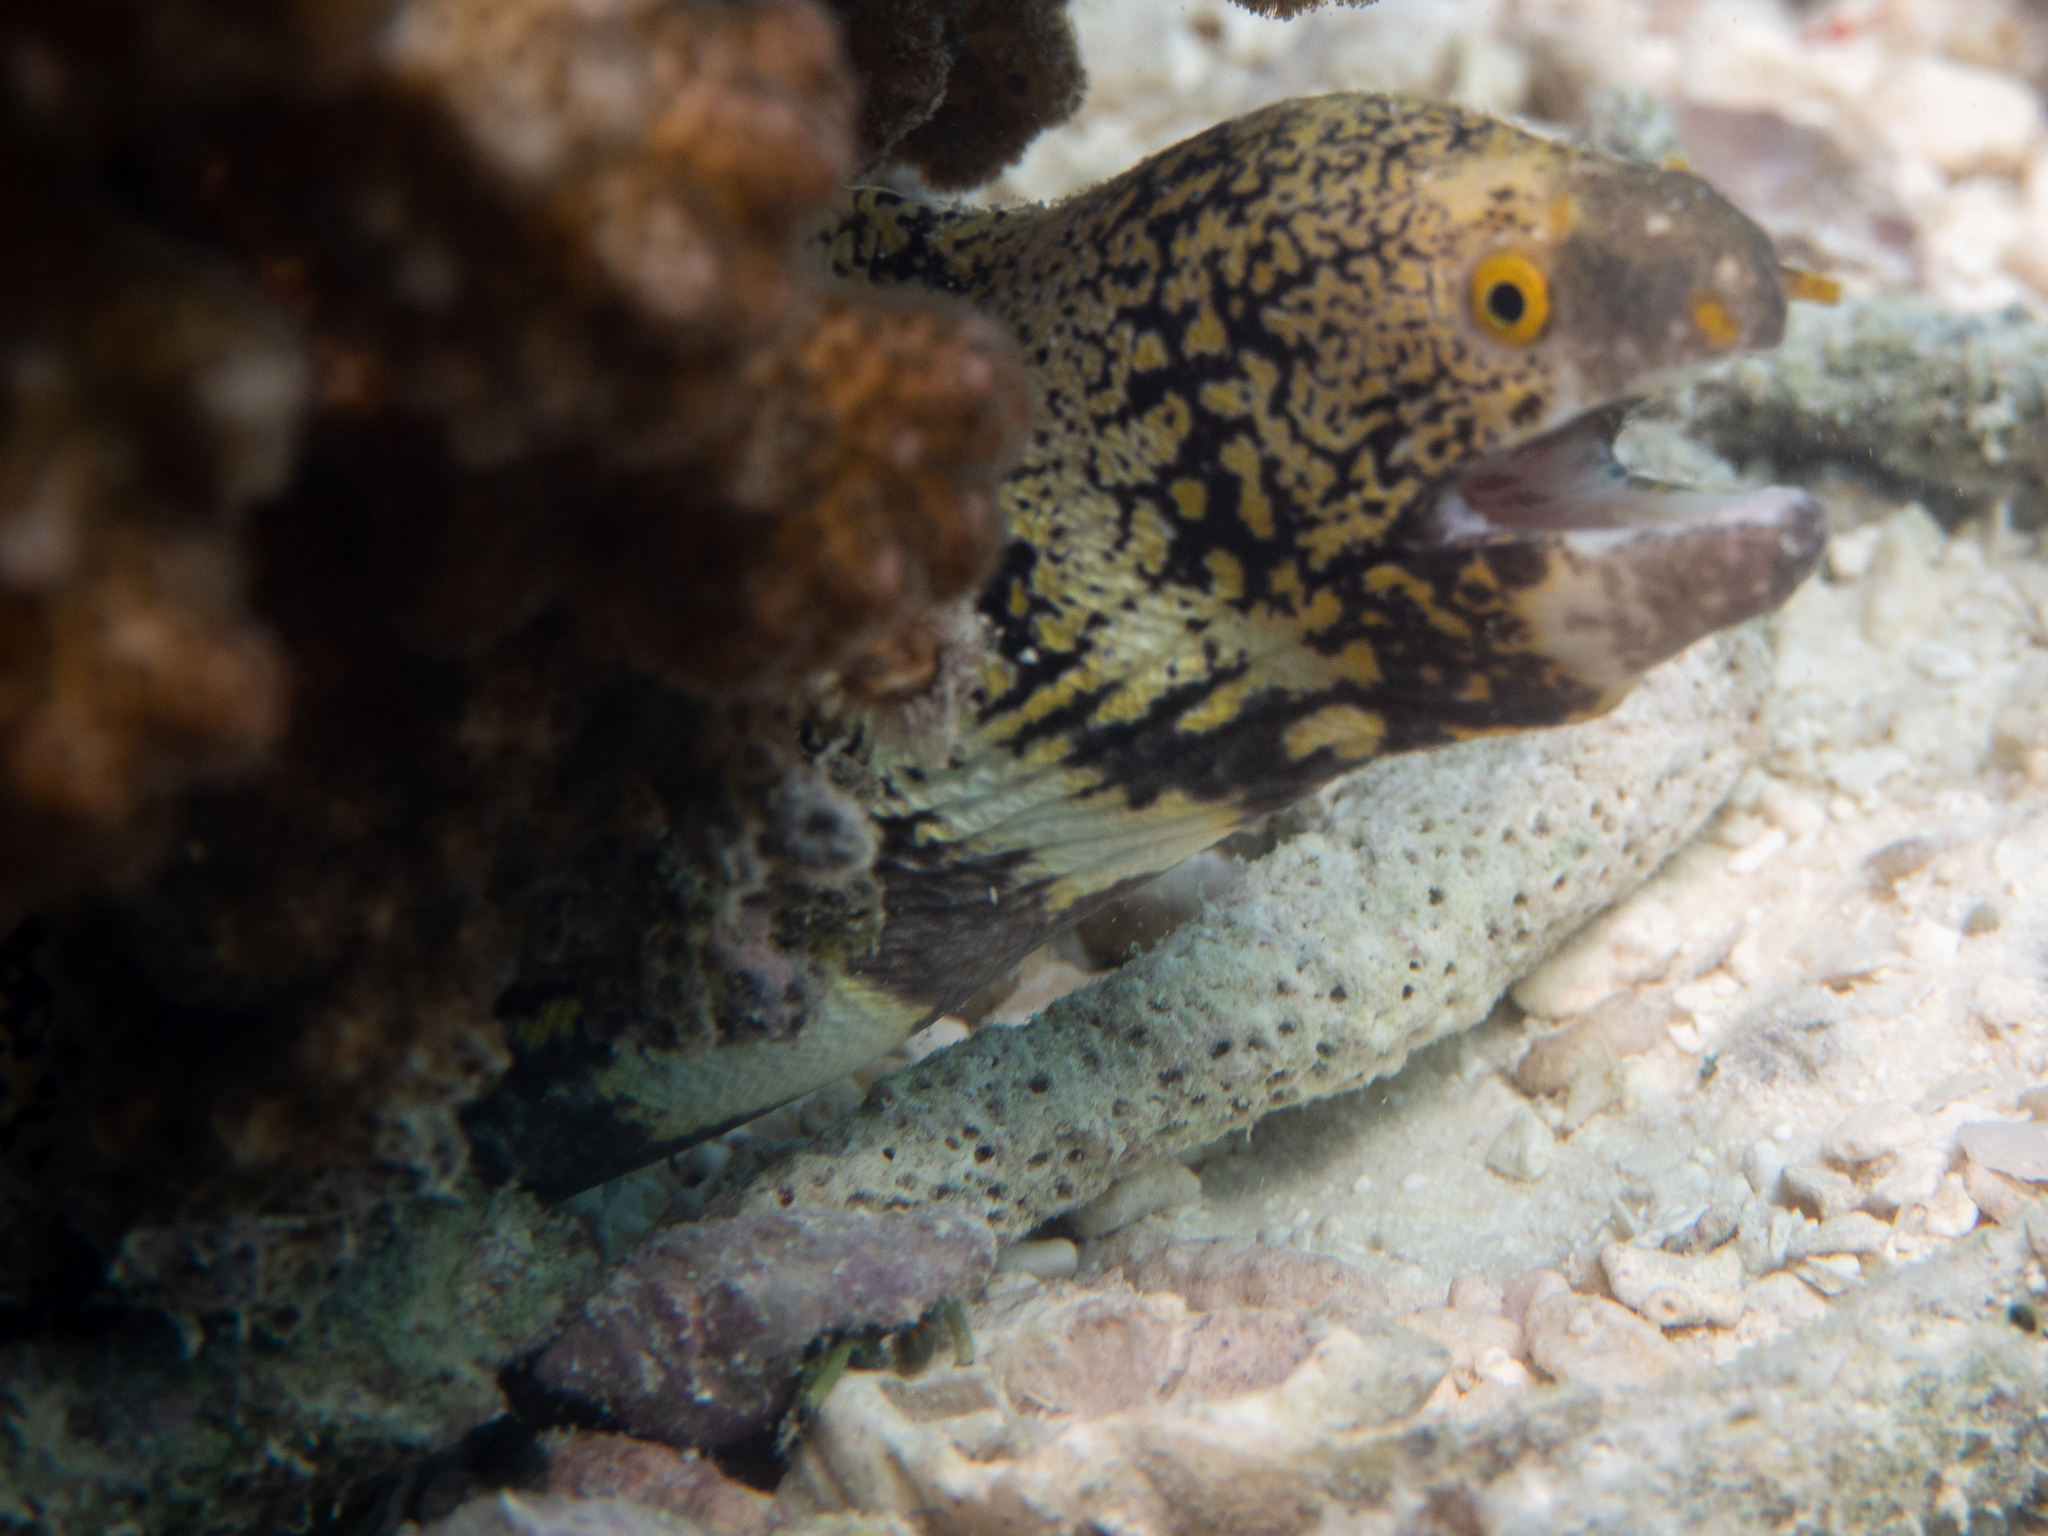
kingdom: Animalia
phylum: Chordata
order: Anguilliformes
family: Muraenidae
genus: Echidna
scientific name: Echidna nebulosa
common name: Snowflake moray
